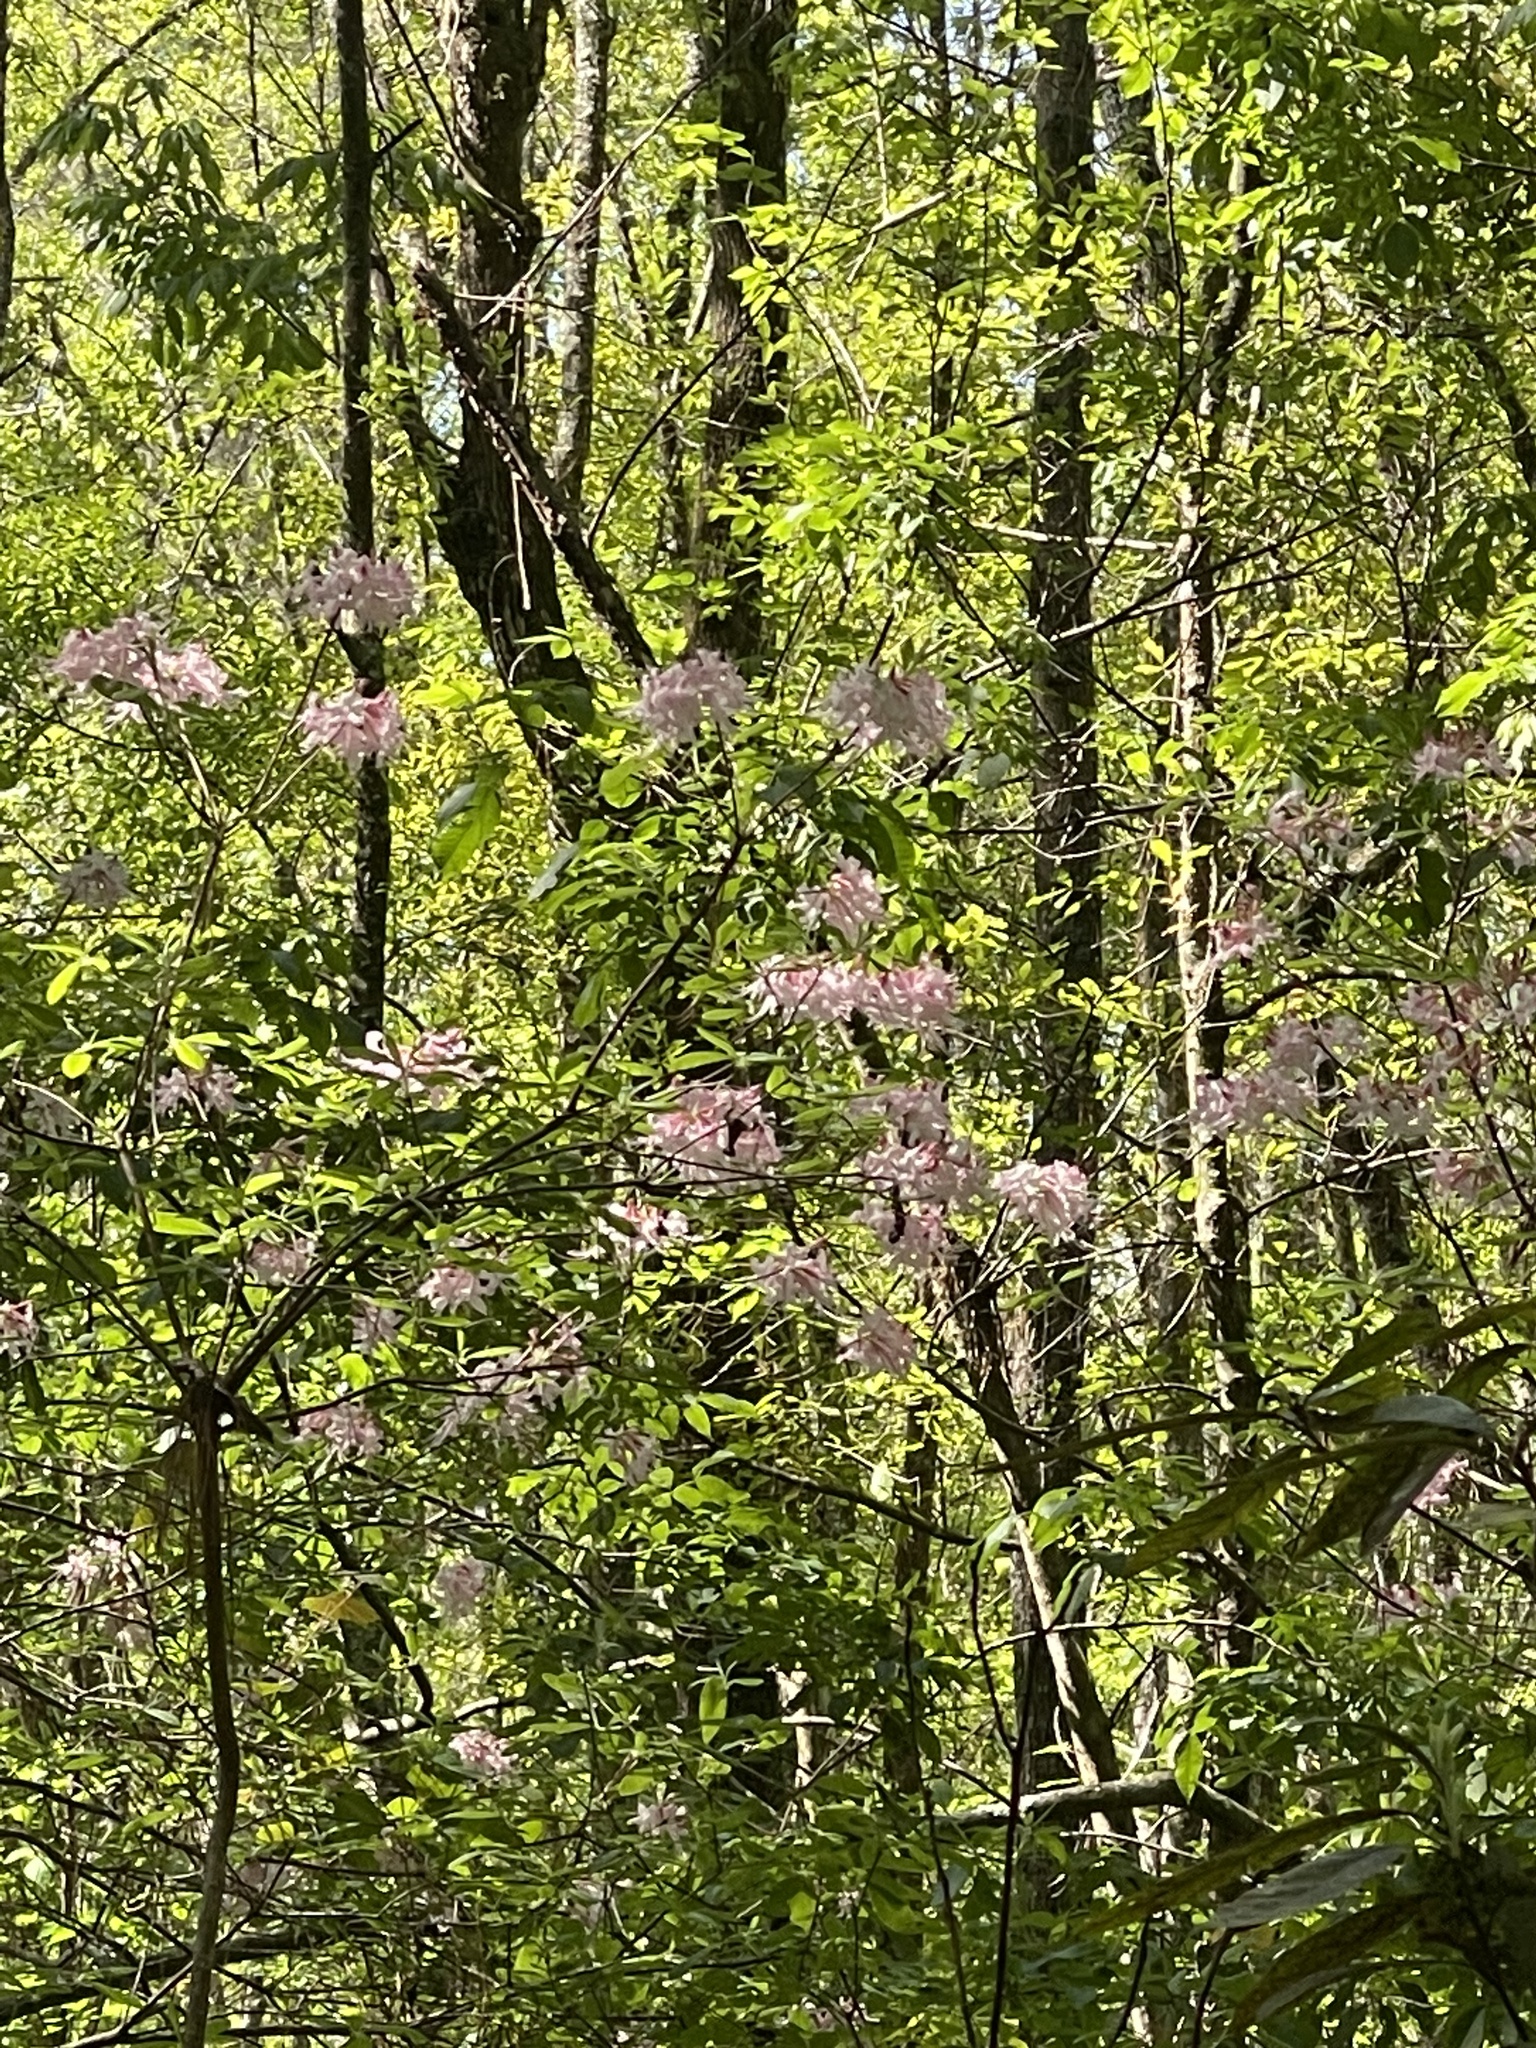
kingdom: Plantae
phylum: Tracheophyta
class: Magnoliopsida
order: Ericales
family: Ericaceae
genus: Rhododendron
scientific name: Rhododendron canescens
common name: Mountain azalea
